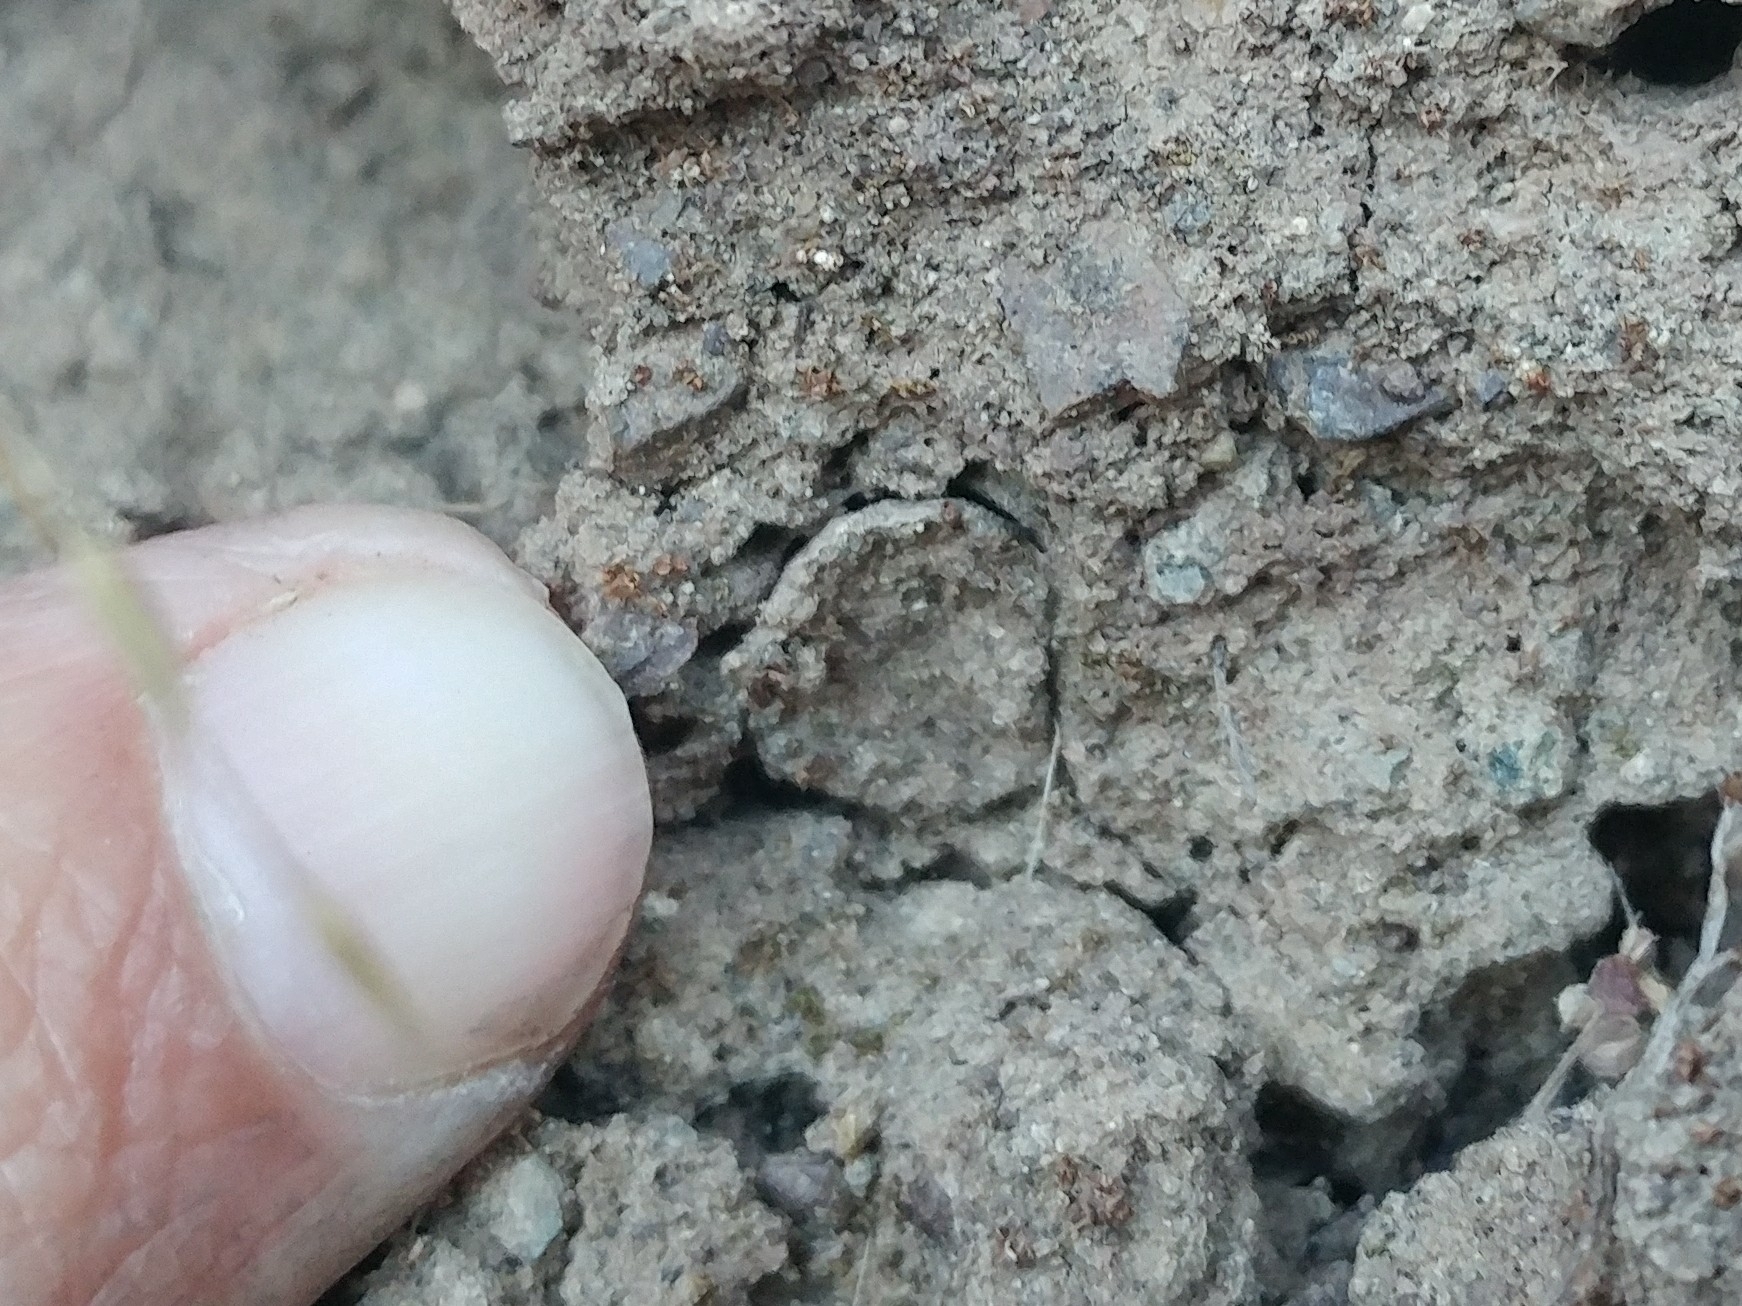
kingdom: Animalia
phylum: Arthropoda
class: Arachnida
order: Araneae
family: Halonoproctidae
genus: Hebestatis
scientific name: Hebestatis theveneti
